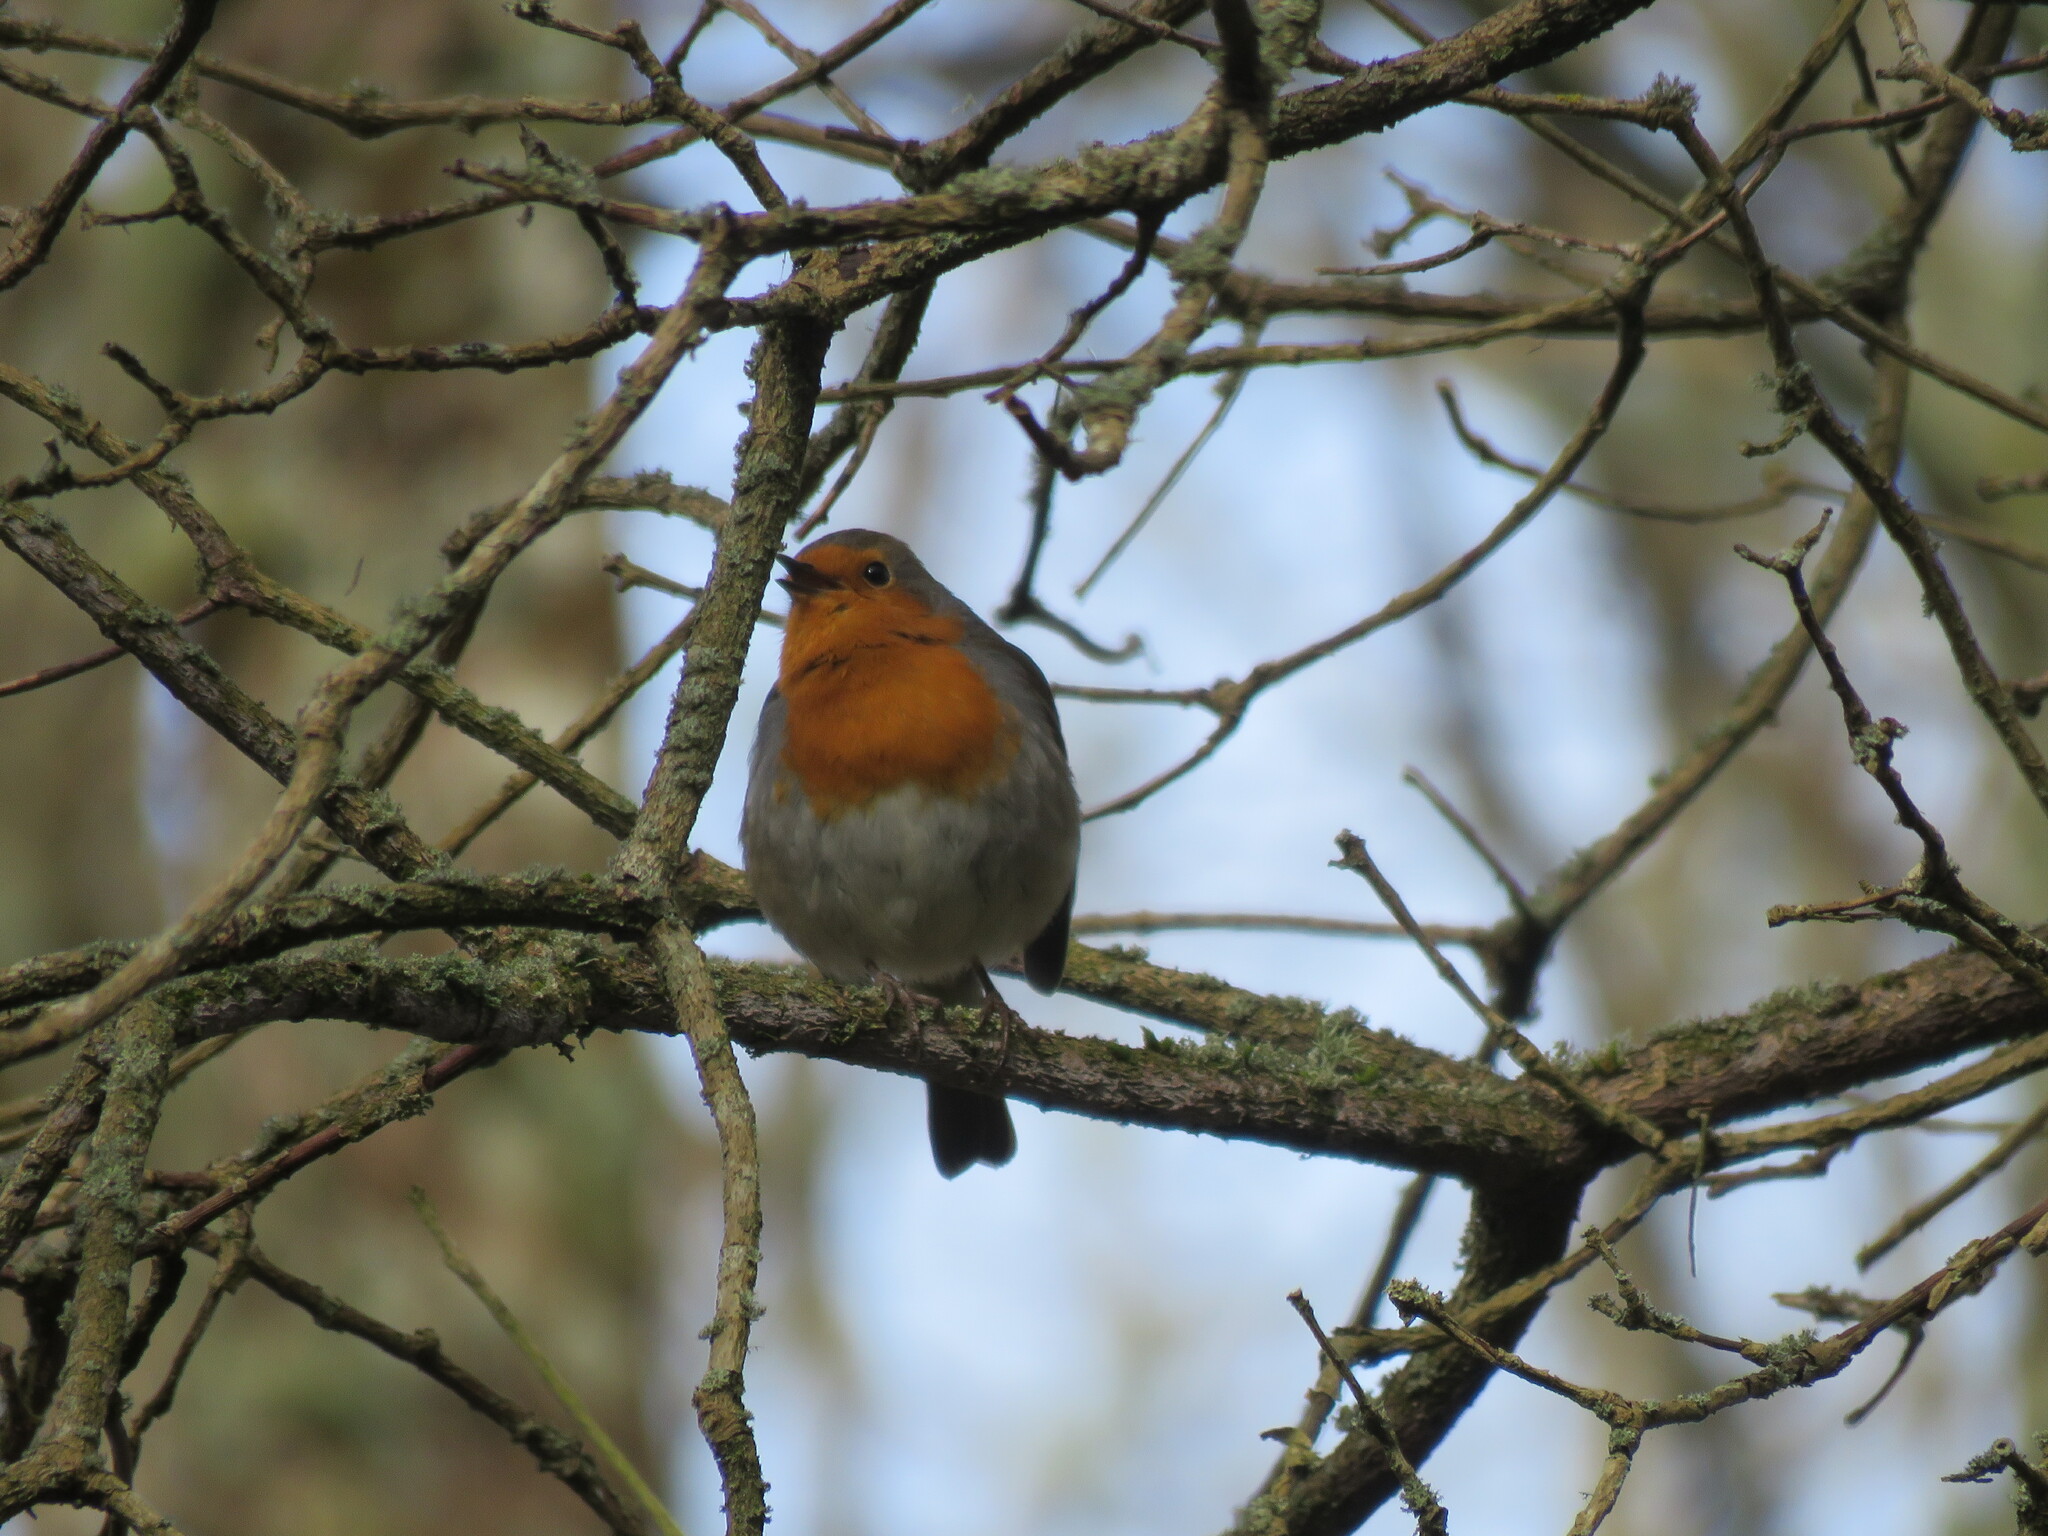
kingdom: Animalia
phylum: Chordata
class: Aves
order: Passeriformes
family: Muscicapidae
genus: Erithacus
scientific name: Erithacus rubecula
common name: European robin
